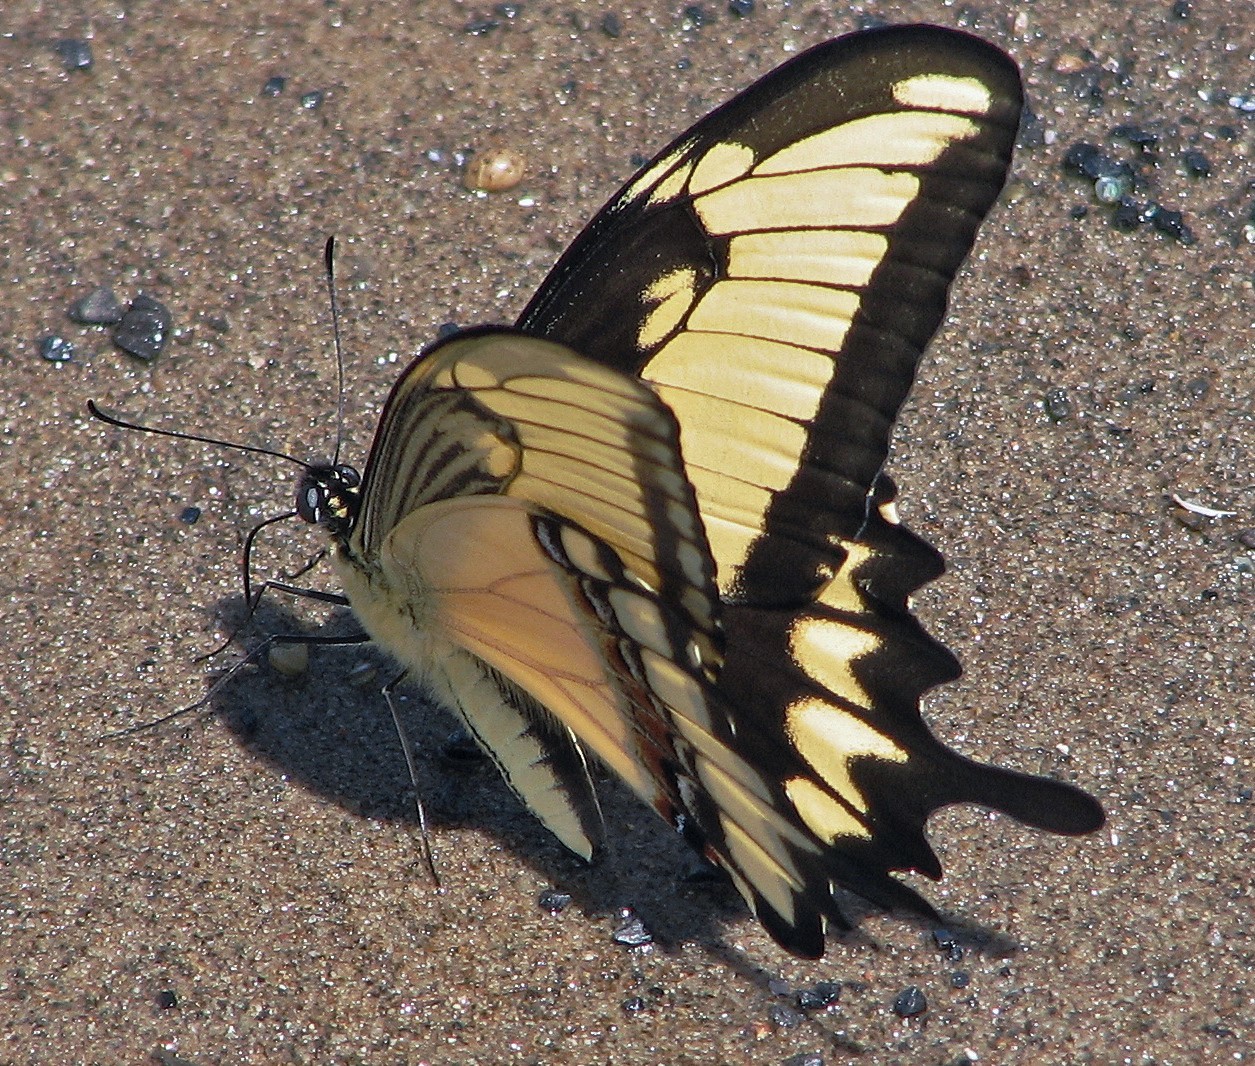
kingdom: Animalia
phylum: Arthropoda
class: Insecta
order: Lepidoptera
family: Papilionidae
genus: Papilio
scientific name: Papilio astyalus
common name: Astyalus swallowtail
